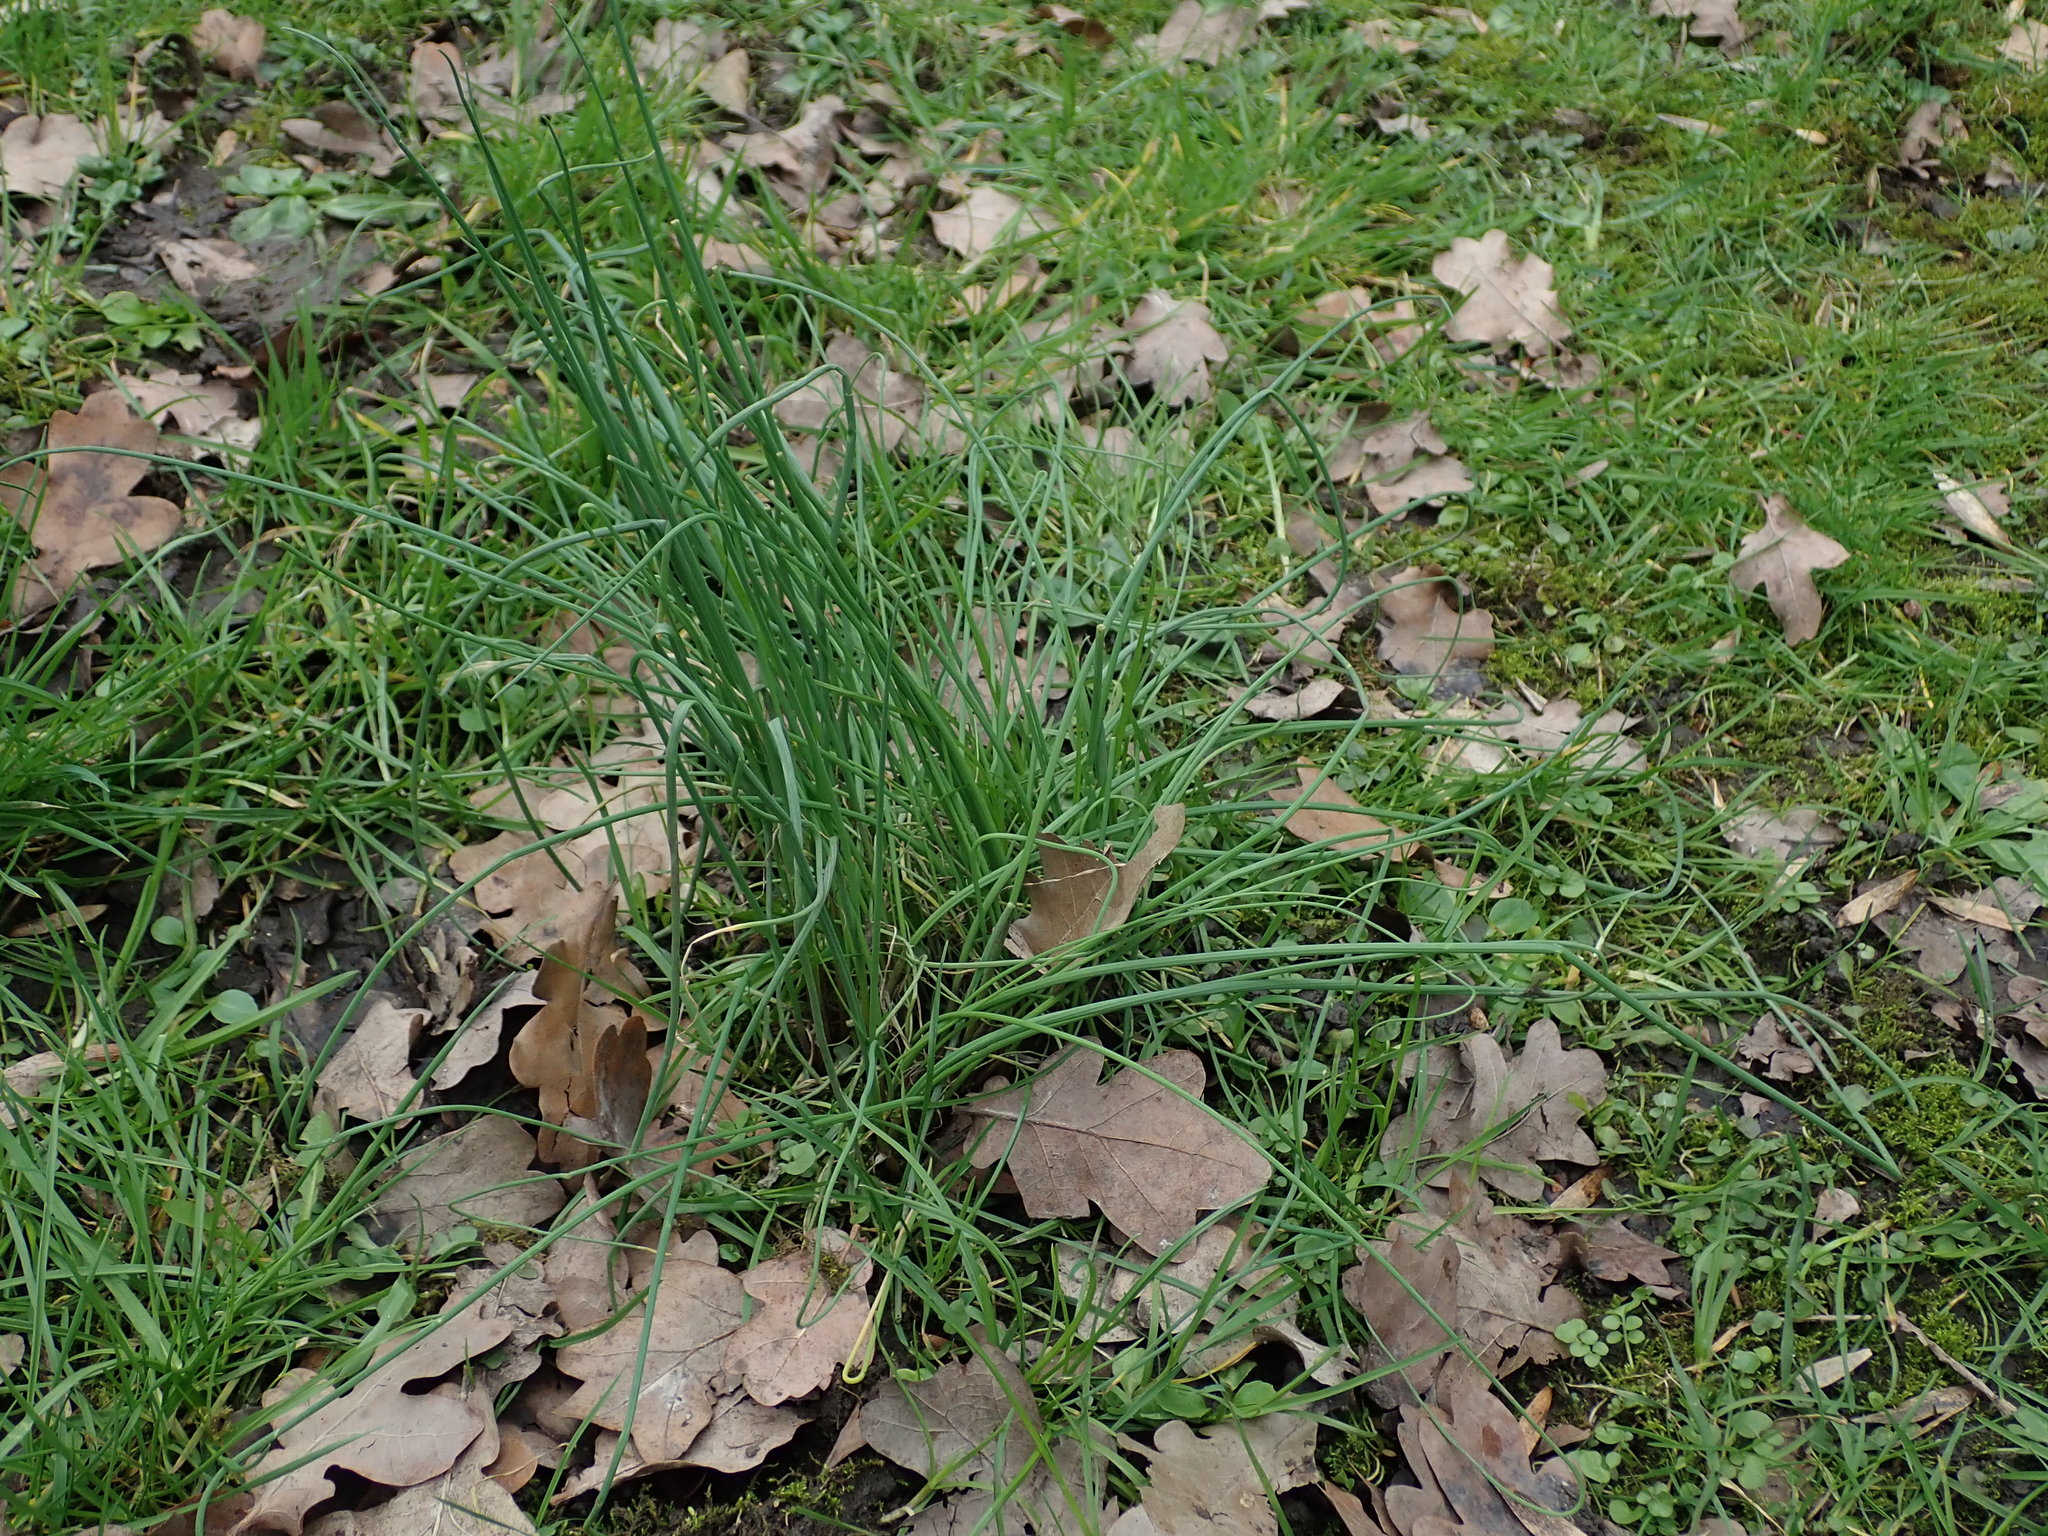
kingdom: Plantae
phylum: Tracheophyta
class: Liliopsida
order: Asparagales
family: Amaryllidaceae
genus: Allium
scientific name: Allium vineale
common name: Crow garlic
